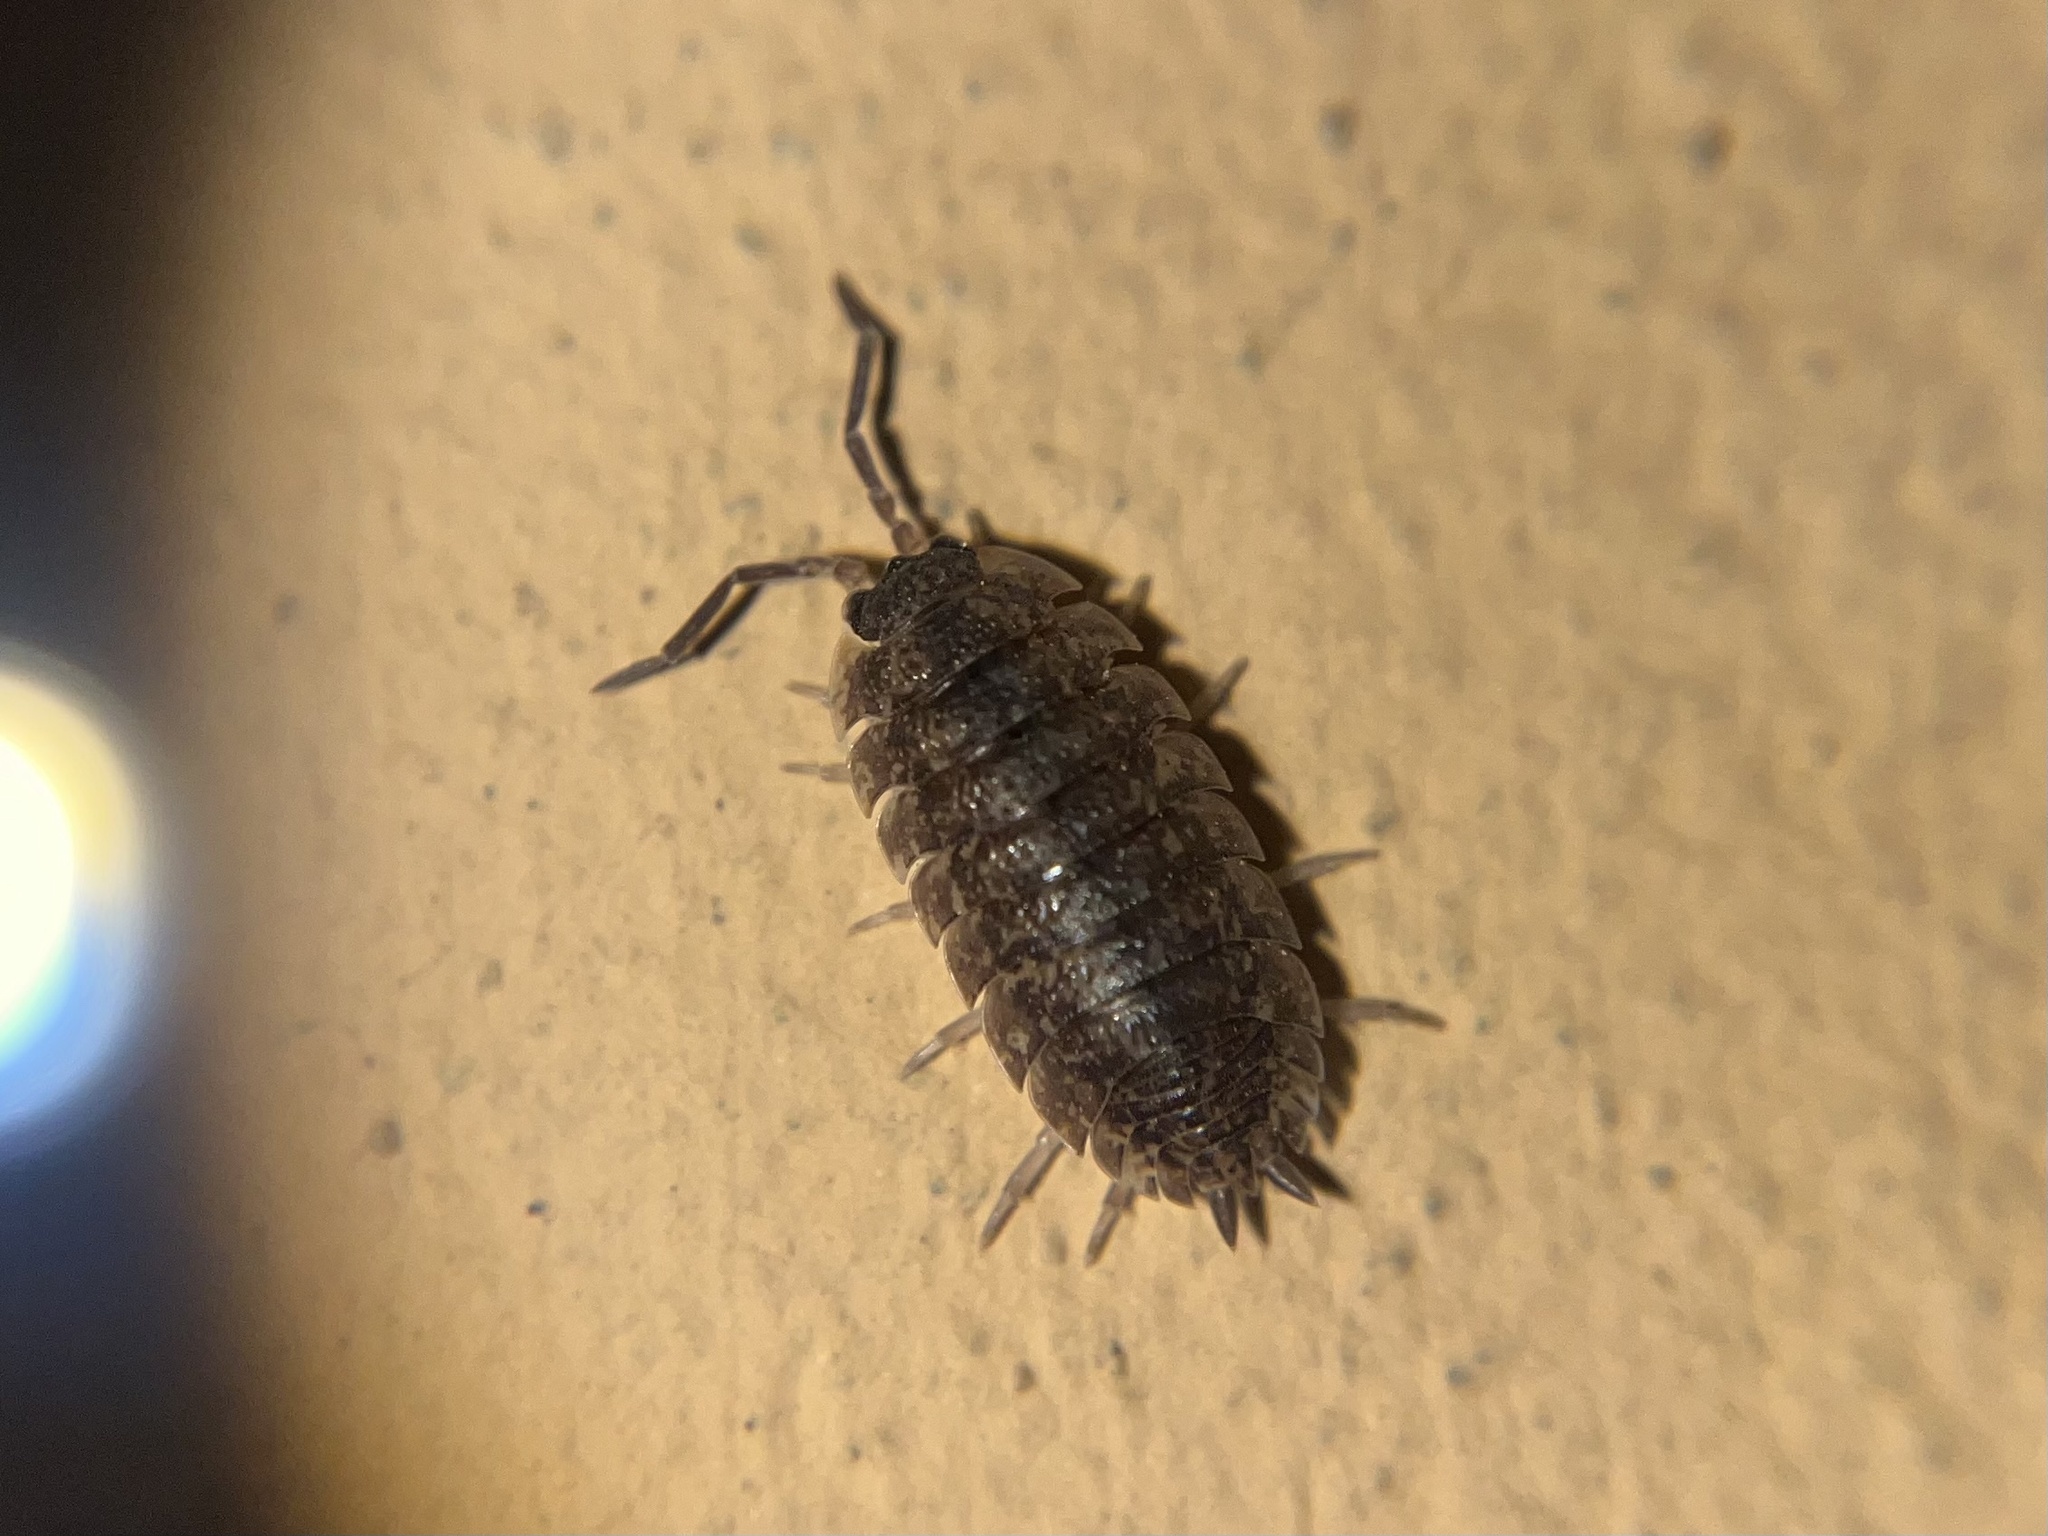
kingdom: Animalia
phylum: Arthropoda
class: Malacostraca
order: Isopoda
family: Porcellionidae
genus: Porcellio
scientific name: Porcellio scaber
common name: Common rough woodlouse
